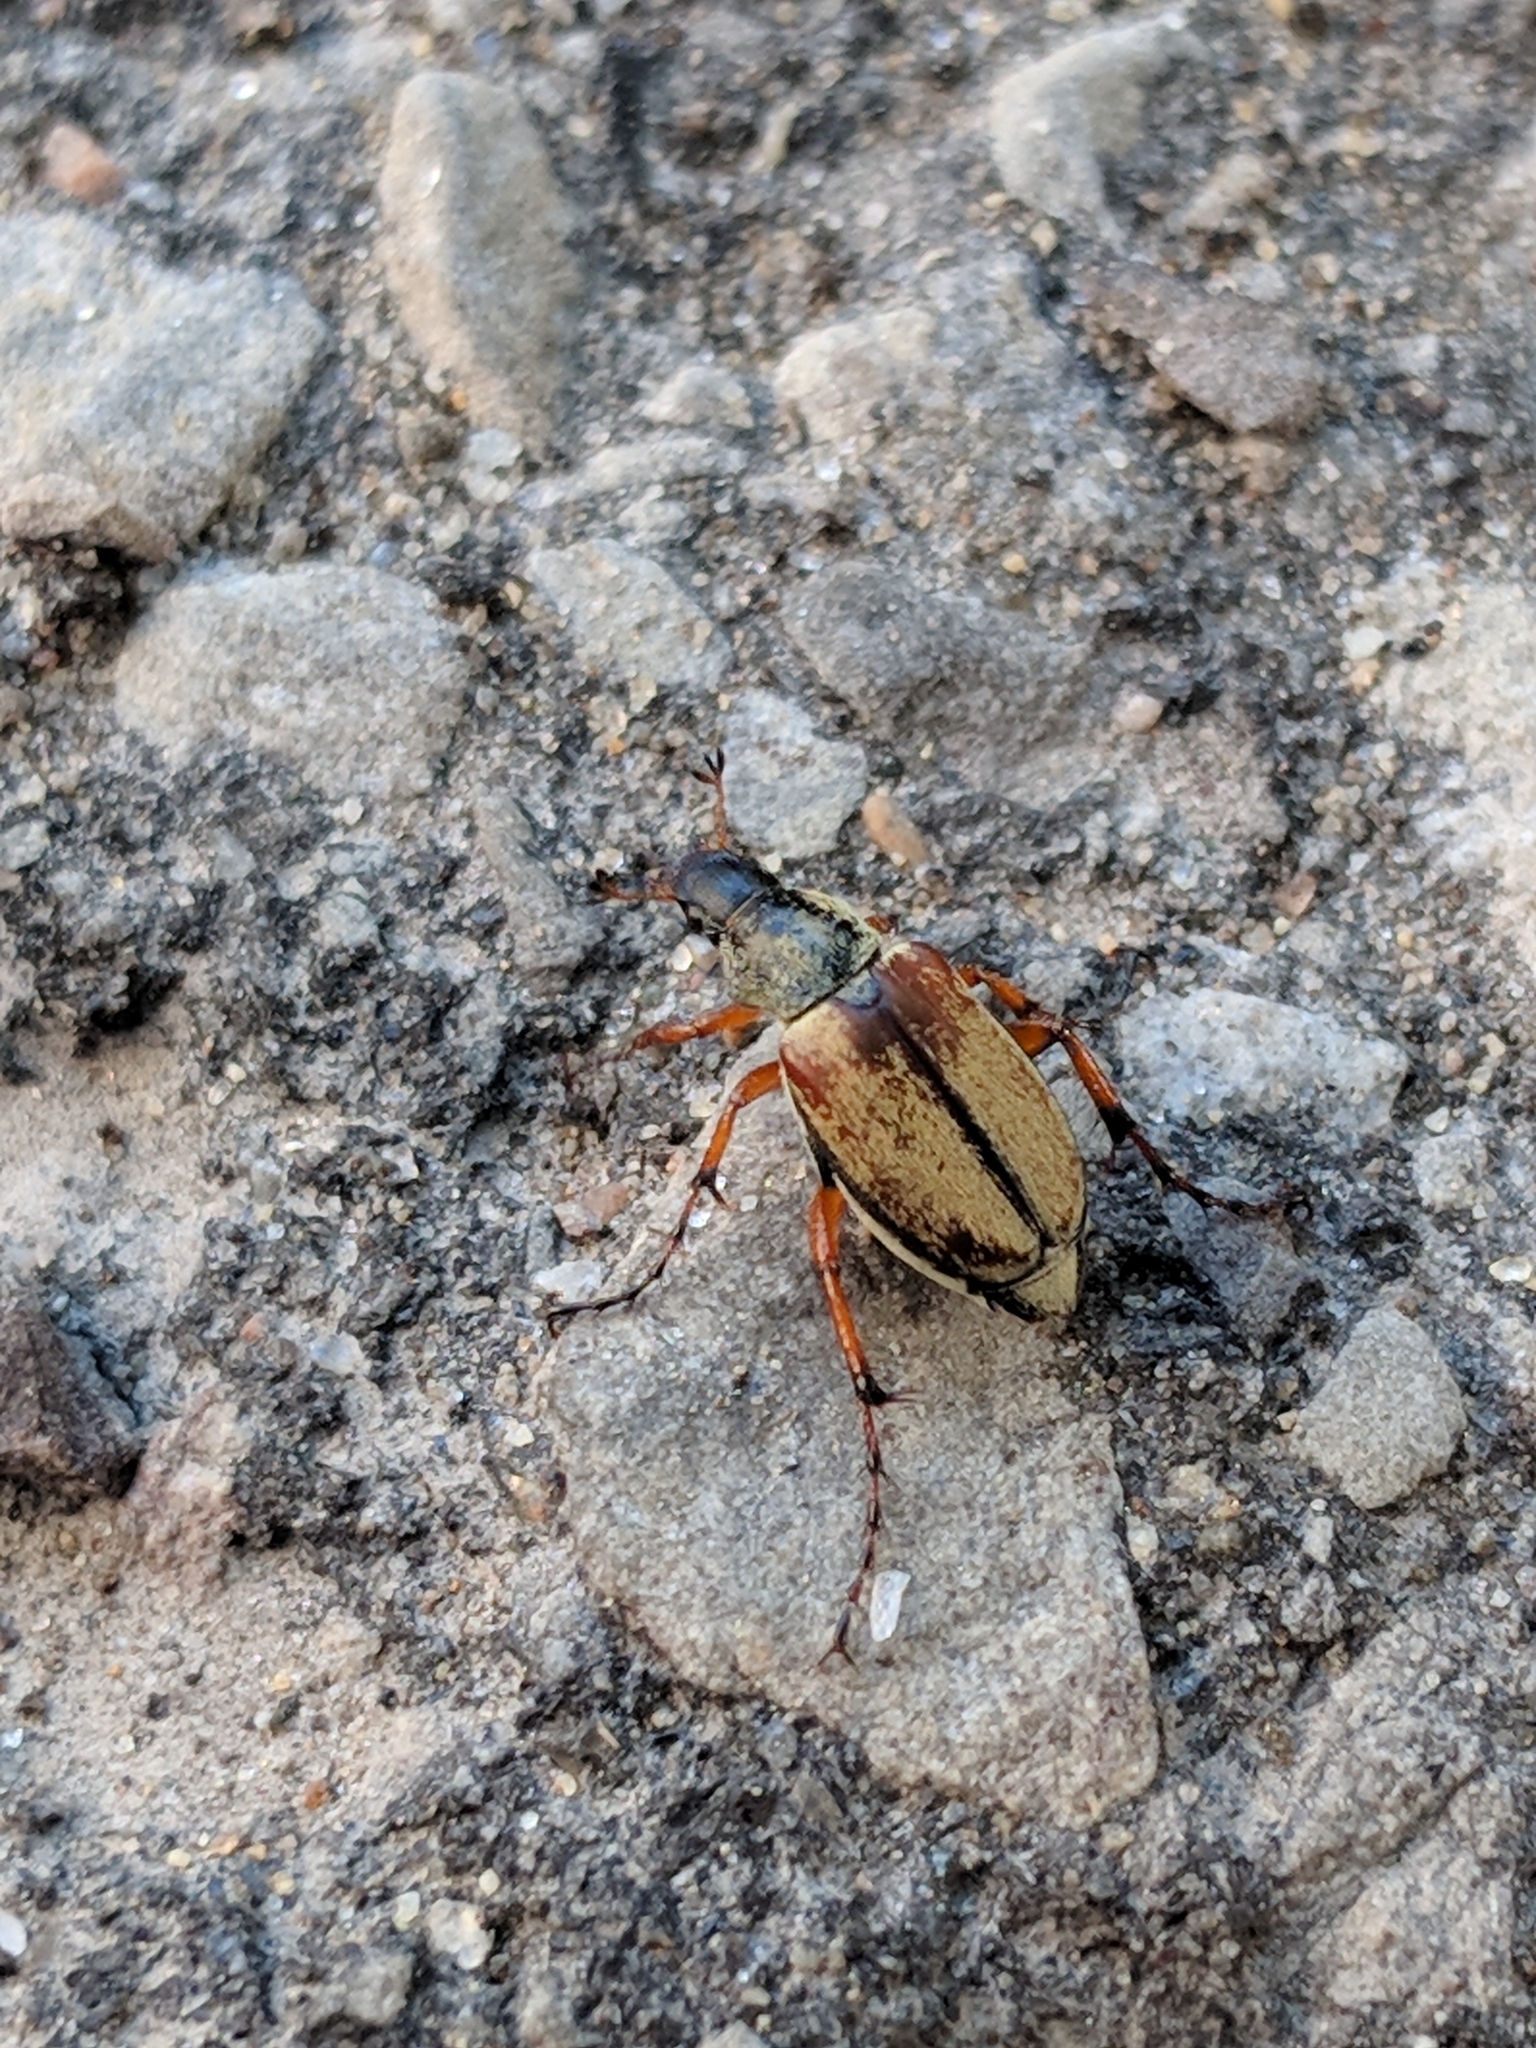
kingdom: Animalia
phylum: Arthropoda
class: Insecta
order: Coleoptera
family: Scarabaeidae
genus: Macrodactylus
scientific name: Macrodactylus subspinosus
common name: American rose chafer
